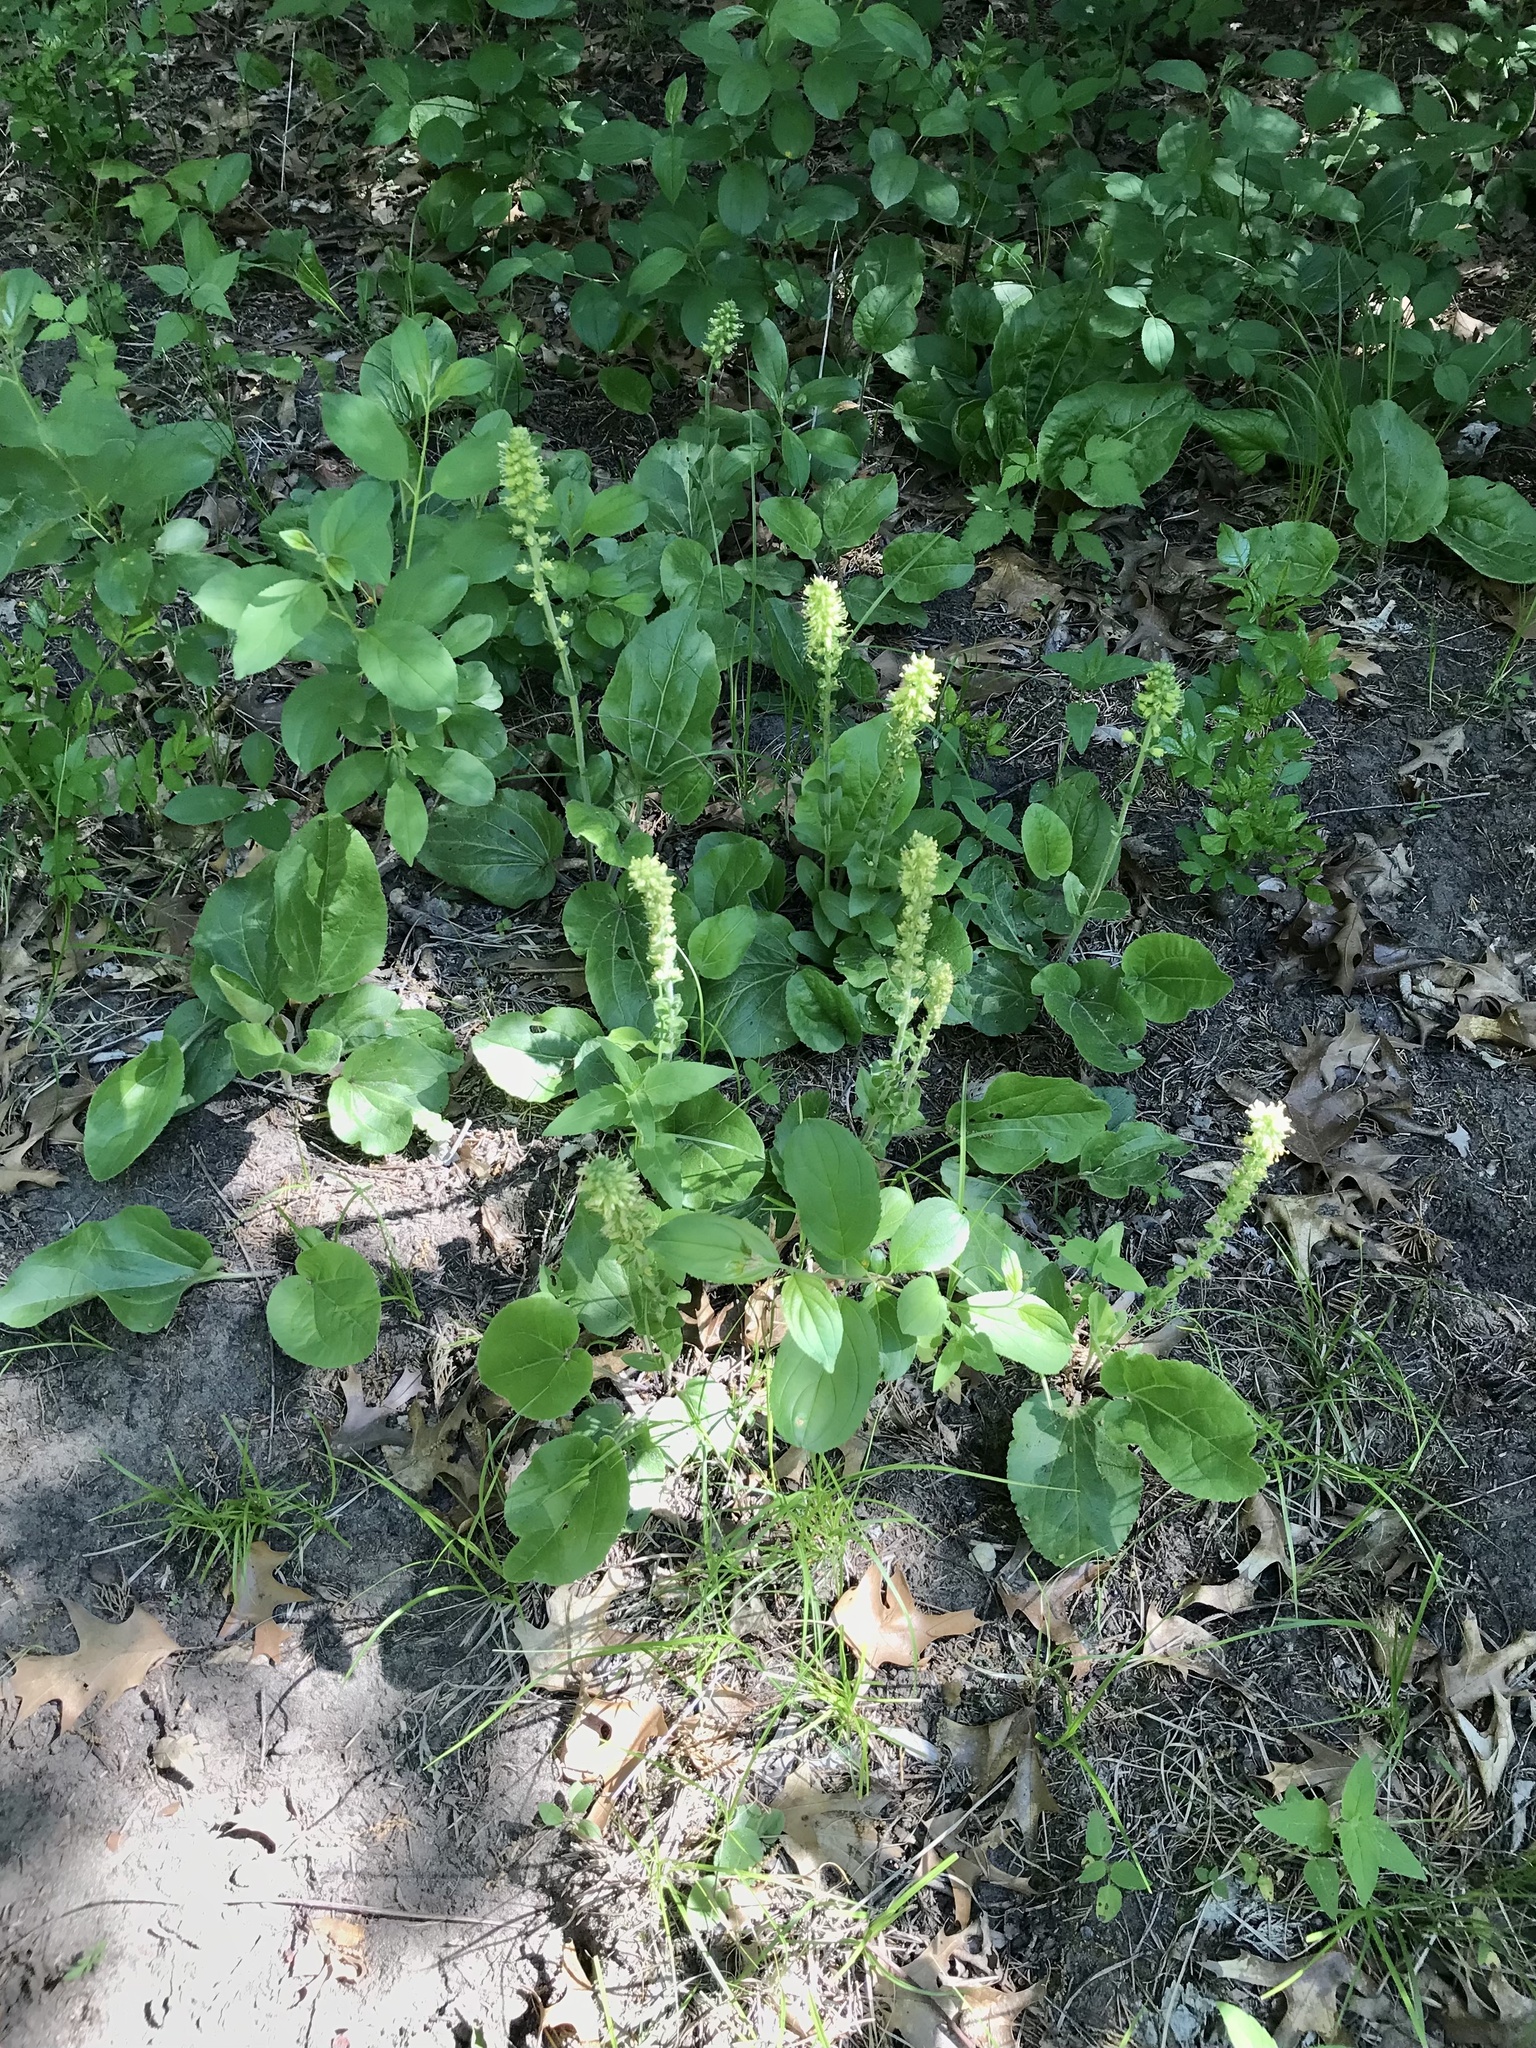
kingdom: Plantae
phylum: Tracheophyta
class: Magnoliopsida
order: Lamiales
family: Plantaginaceae
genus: Synthyris
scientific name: Synthyris bullii
